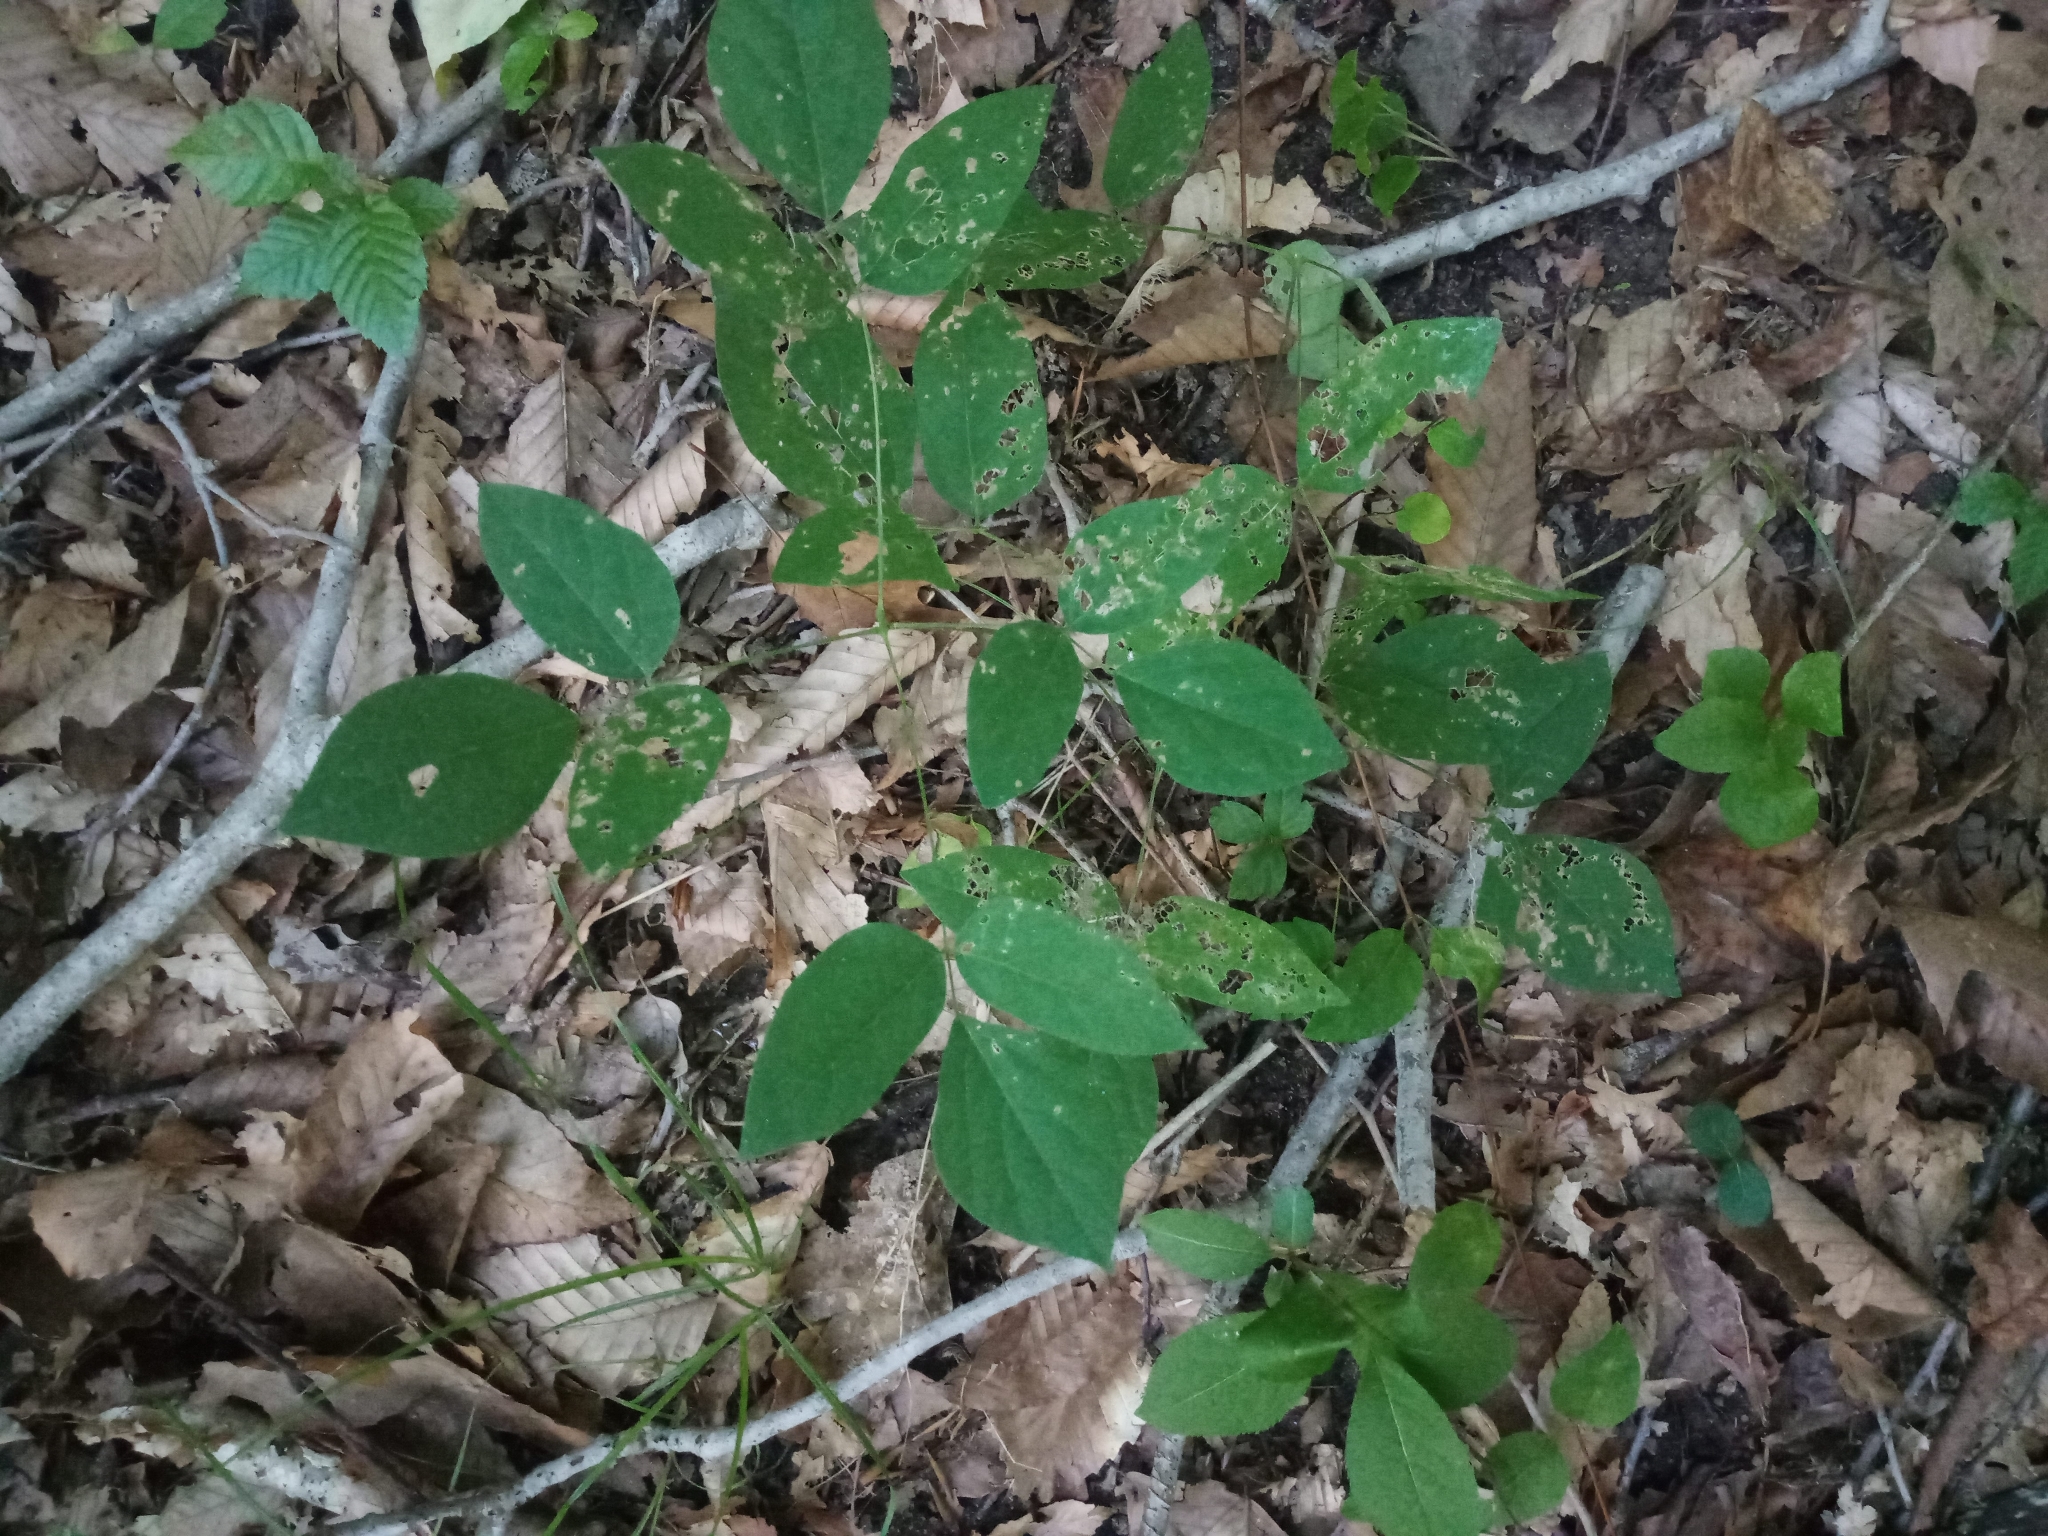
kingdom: Plantae
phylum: Tracheophyta
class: Magnoliopsida
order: Fabales
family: Fabaceae
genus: Hylodesmum
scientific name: Hylodesmum nudiflorum
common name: Bare-stemmed tick-trefoil
